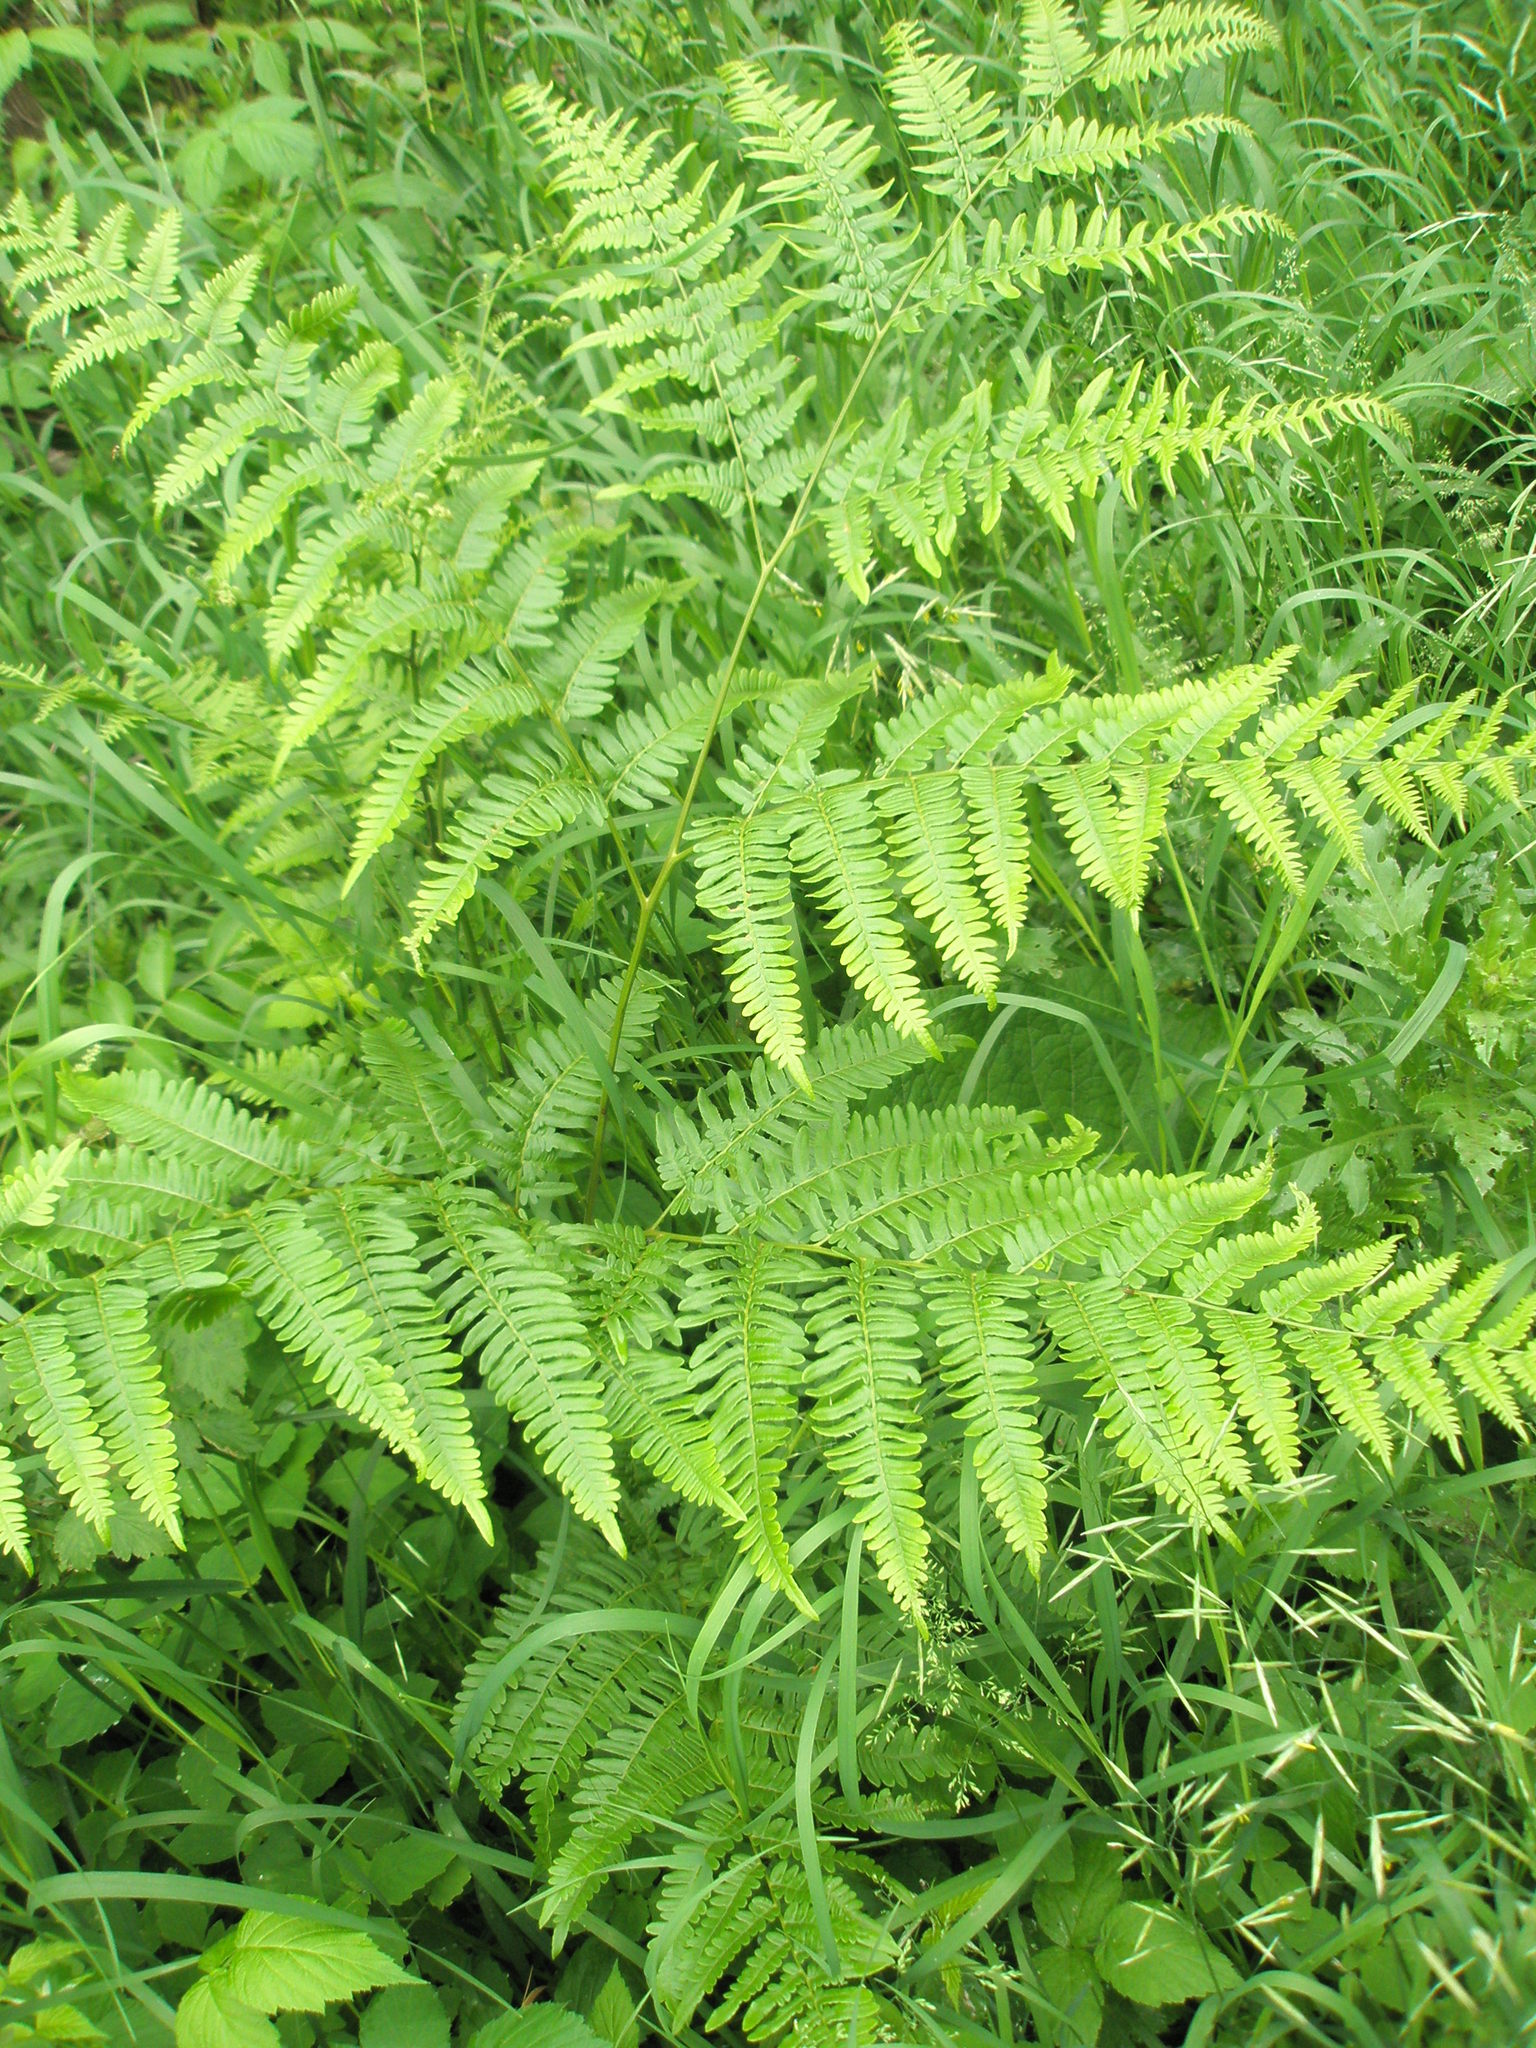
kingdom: Plantae
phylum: Tracheophyta
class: Polypodiopsida
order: Polypodiales
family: Dennstaedtiaceae
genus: Pteridium
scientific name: Pteridium aquilinum
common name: Bracken
